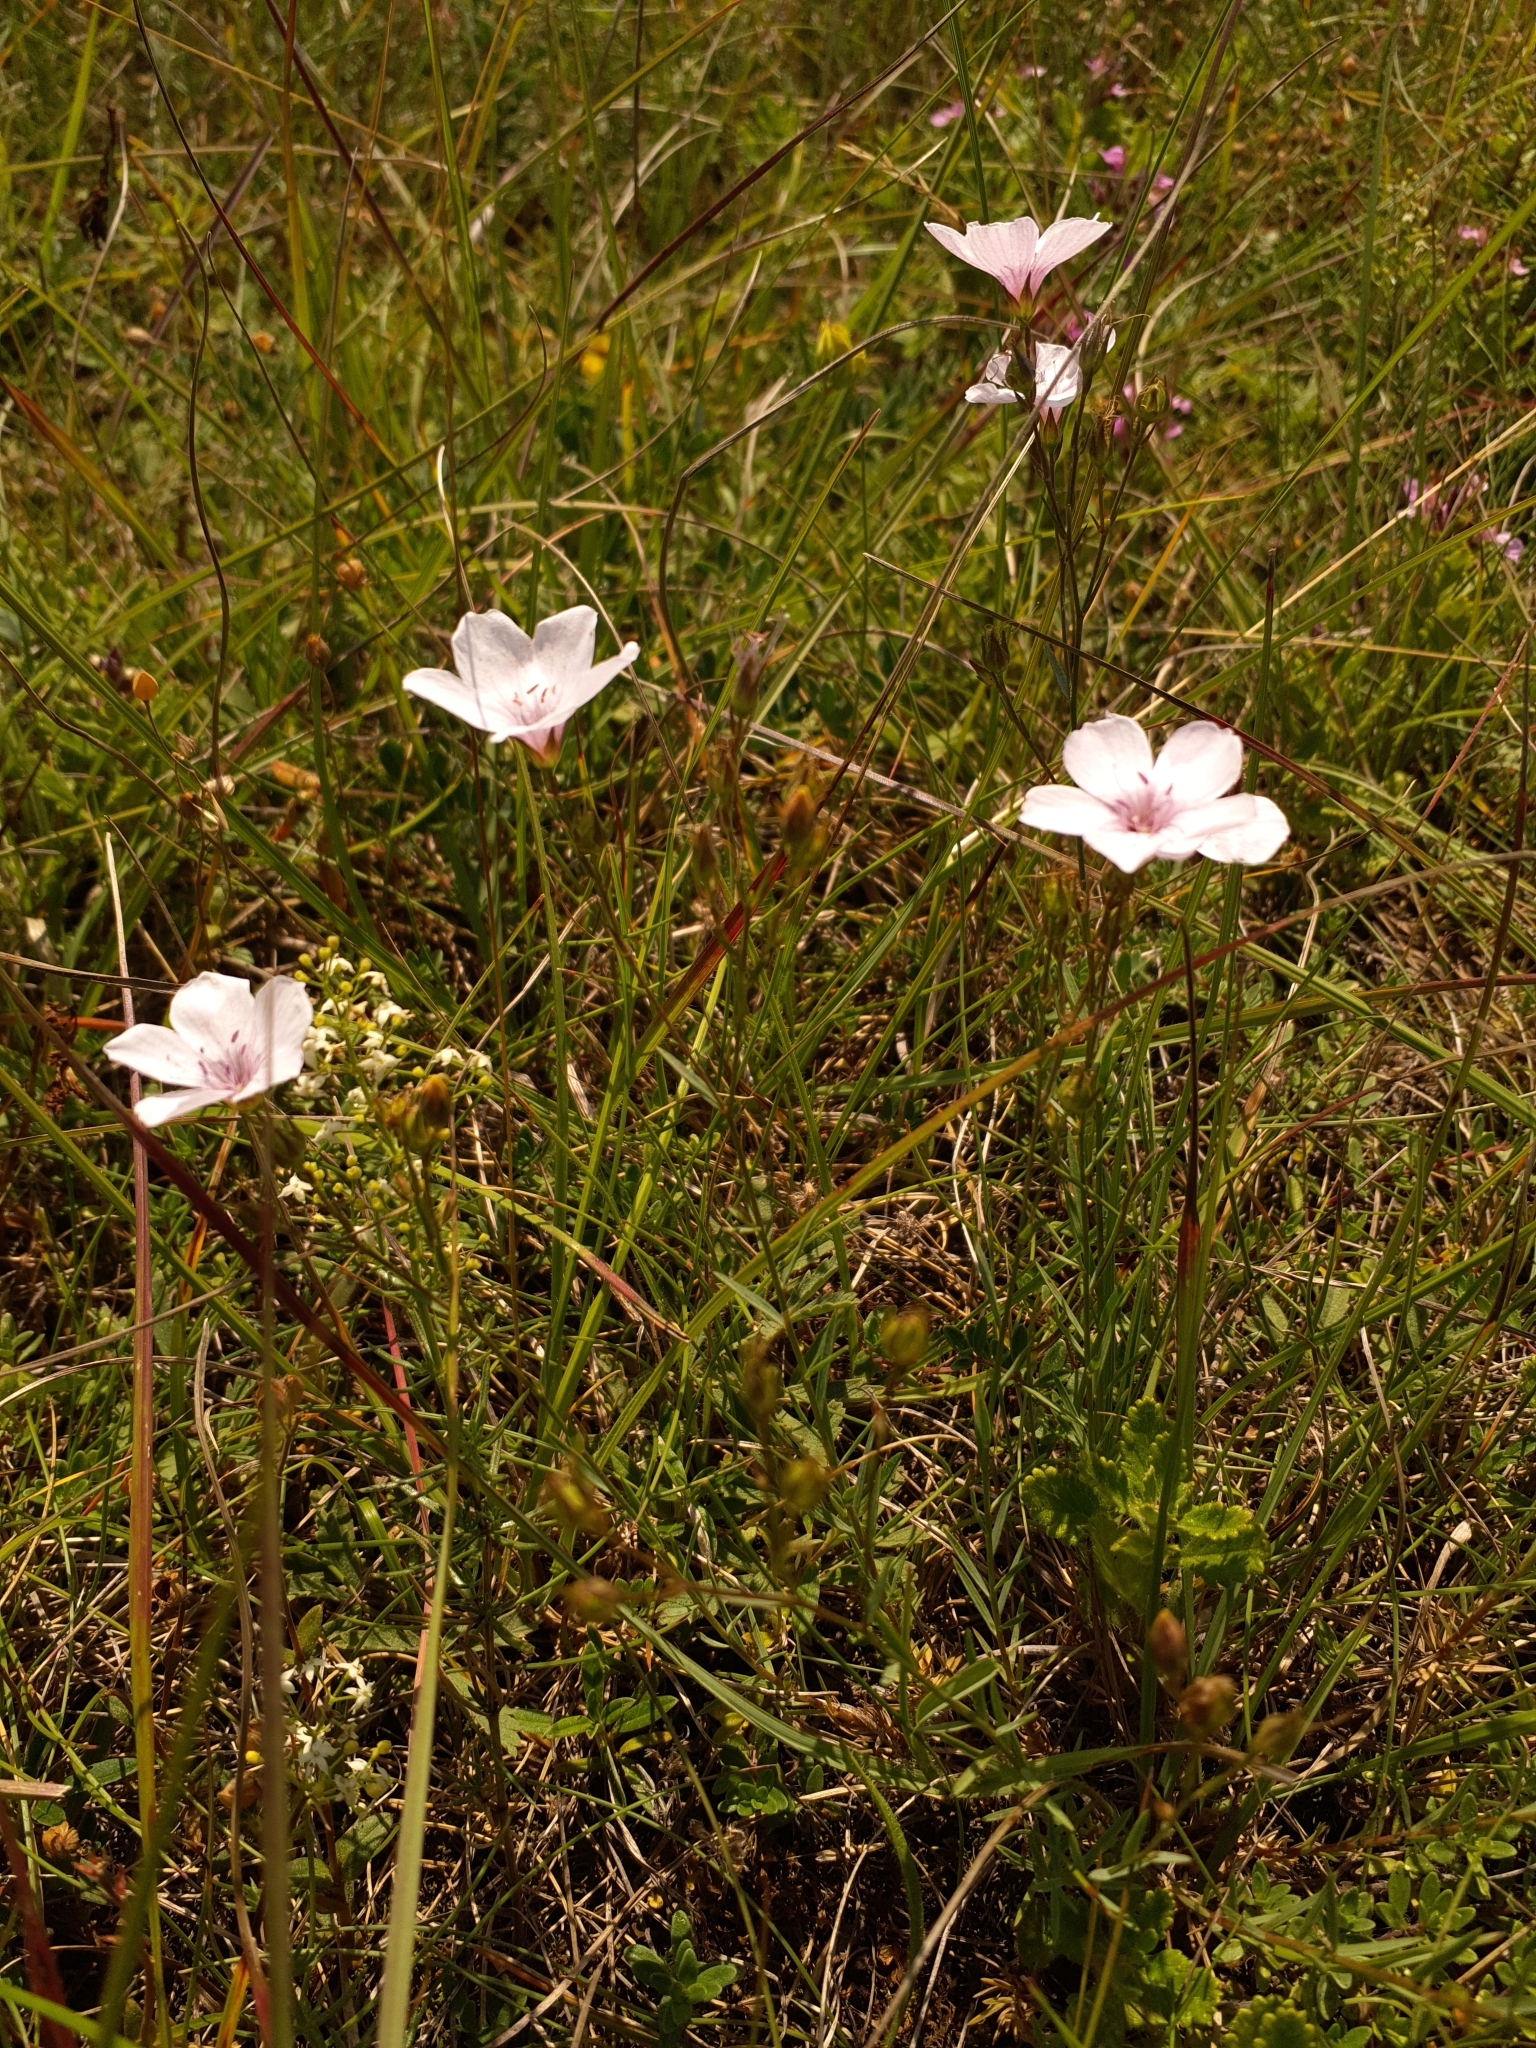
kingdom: Plantae
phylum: Tracheophyta
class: Magnoliopsida
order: Malpighiales
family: Linaceae
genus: Linum
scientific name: Linum tenuifolium
